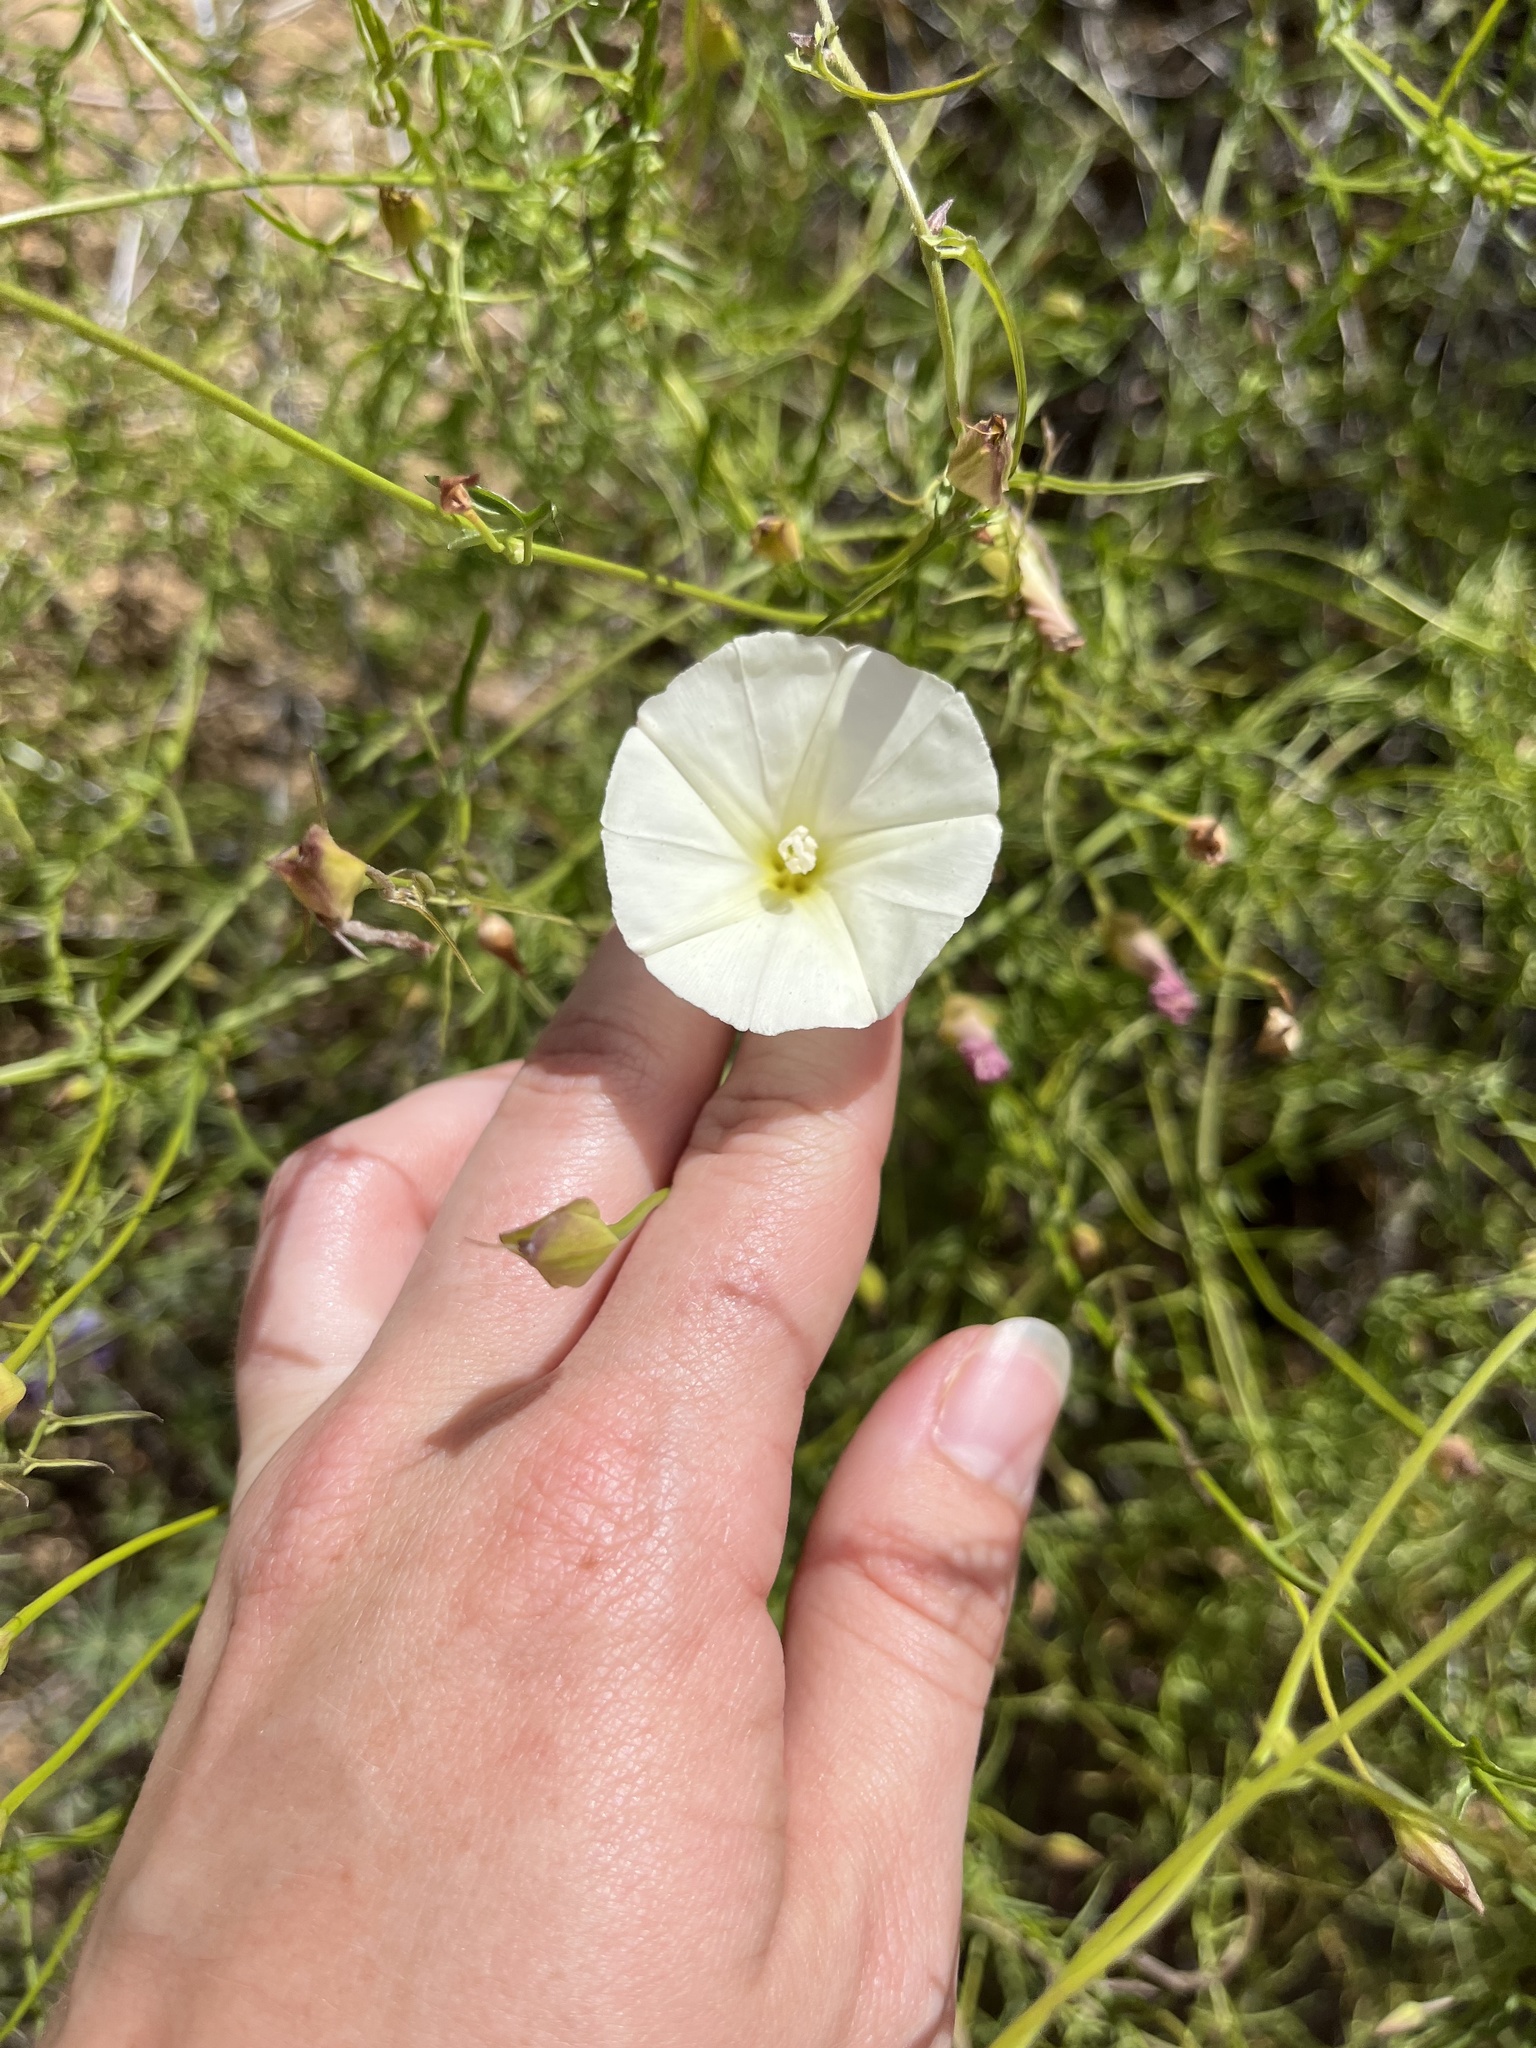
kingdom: Plantae
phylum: Tracheophyta
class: Magnoliopsida
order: Solanales
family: Convolvulaceae
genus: Calystegia
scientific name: Calystegia macrostegia
